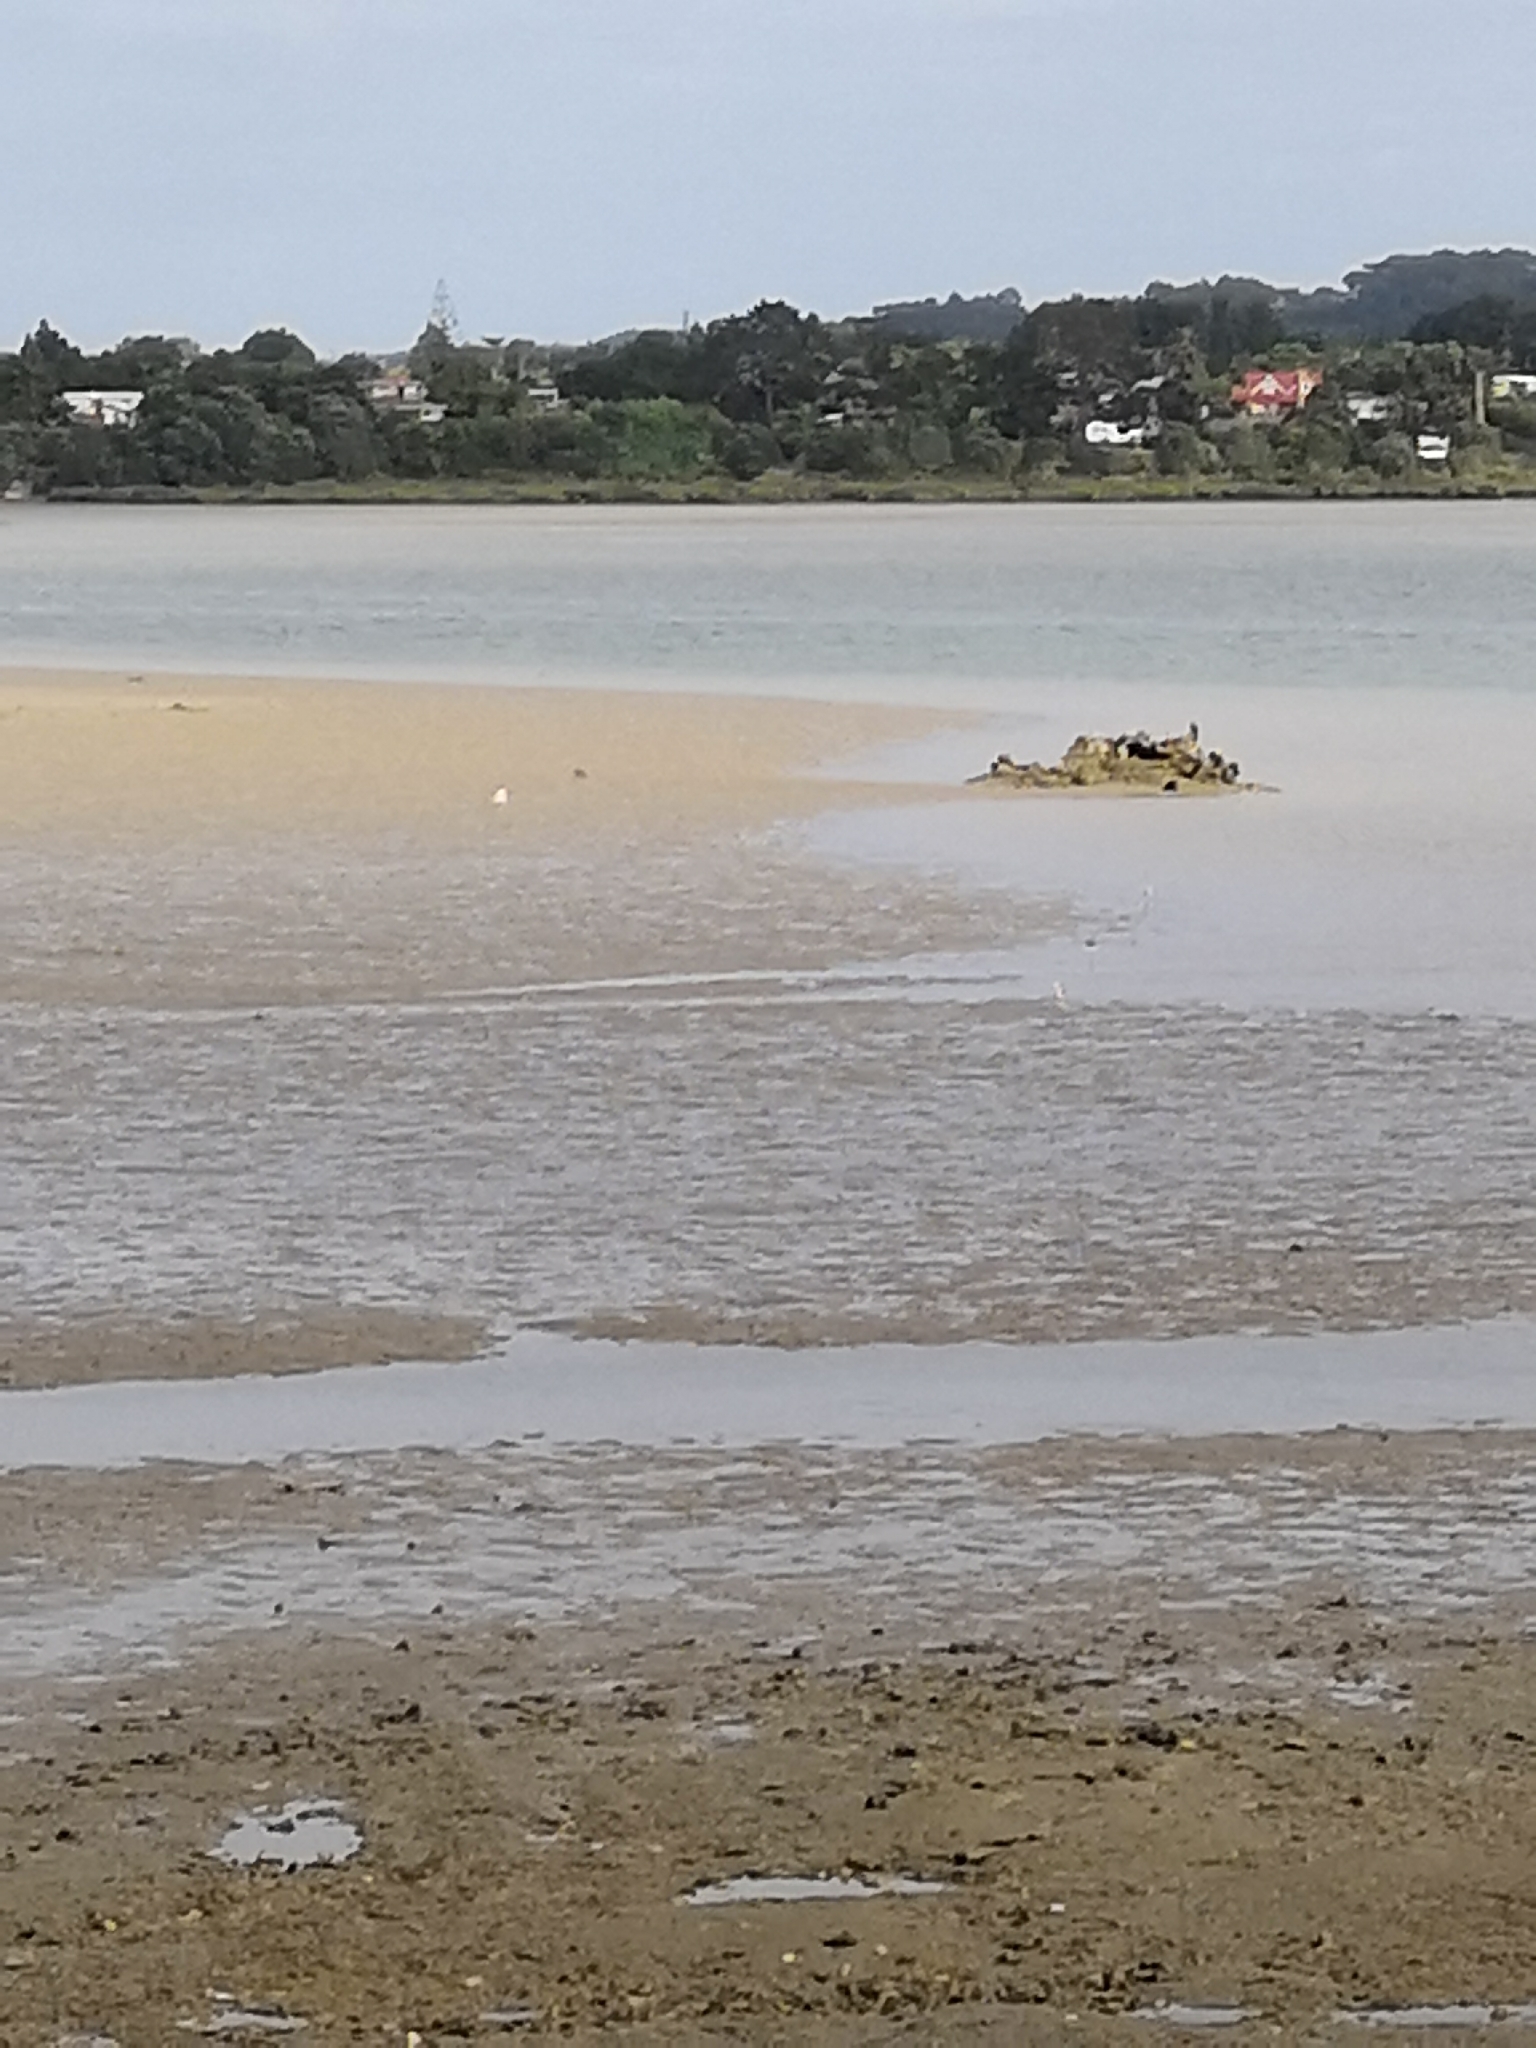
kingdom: Animalia
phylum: Chordata
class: Aves
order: Charadriiformes
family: Recurvirostridae
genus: Himantopus
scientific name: Himantopus leucocephalus
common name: White-headed stilt
